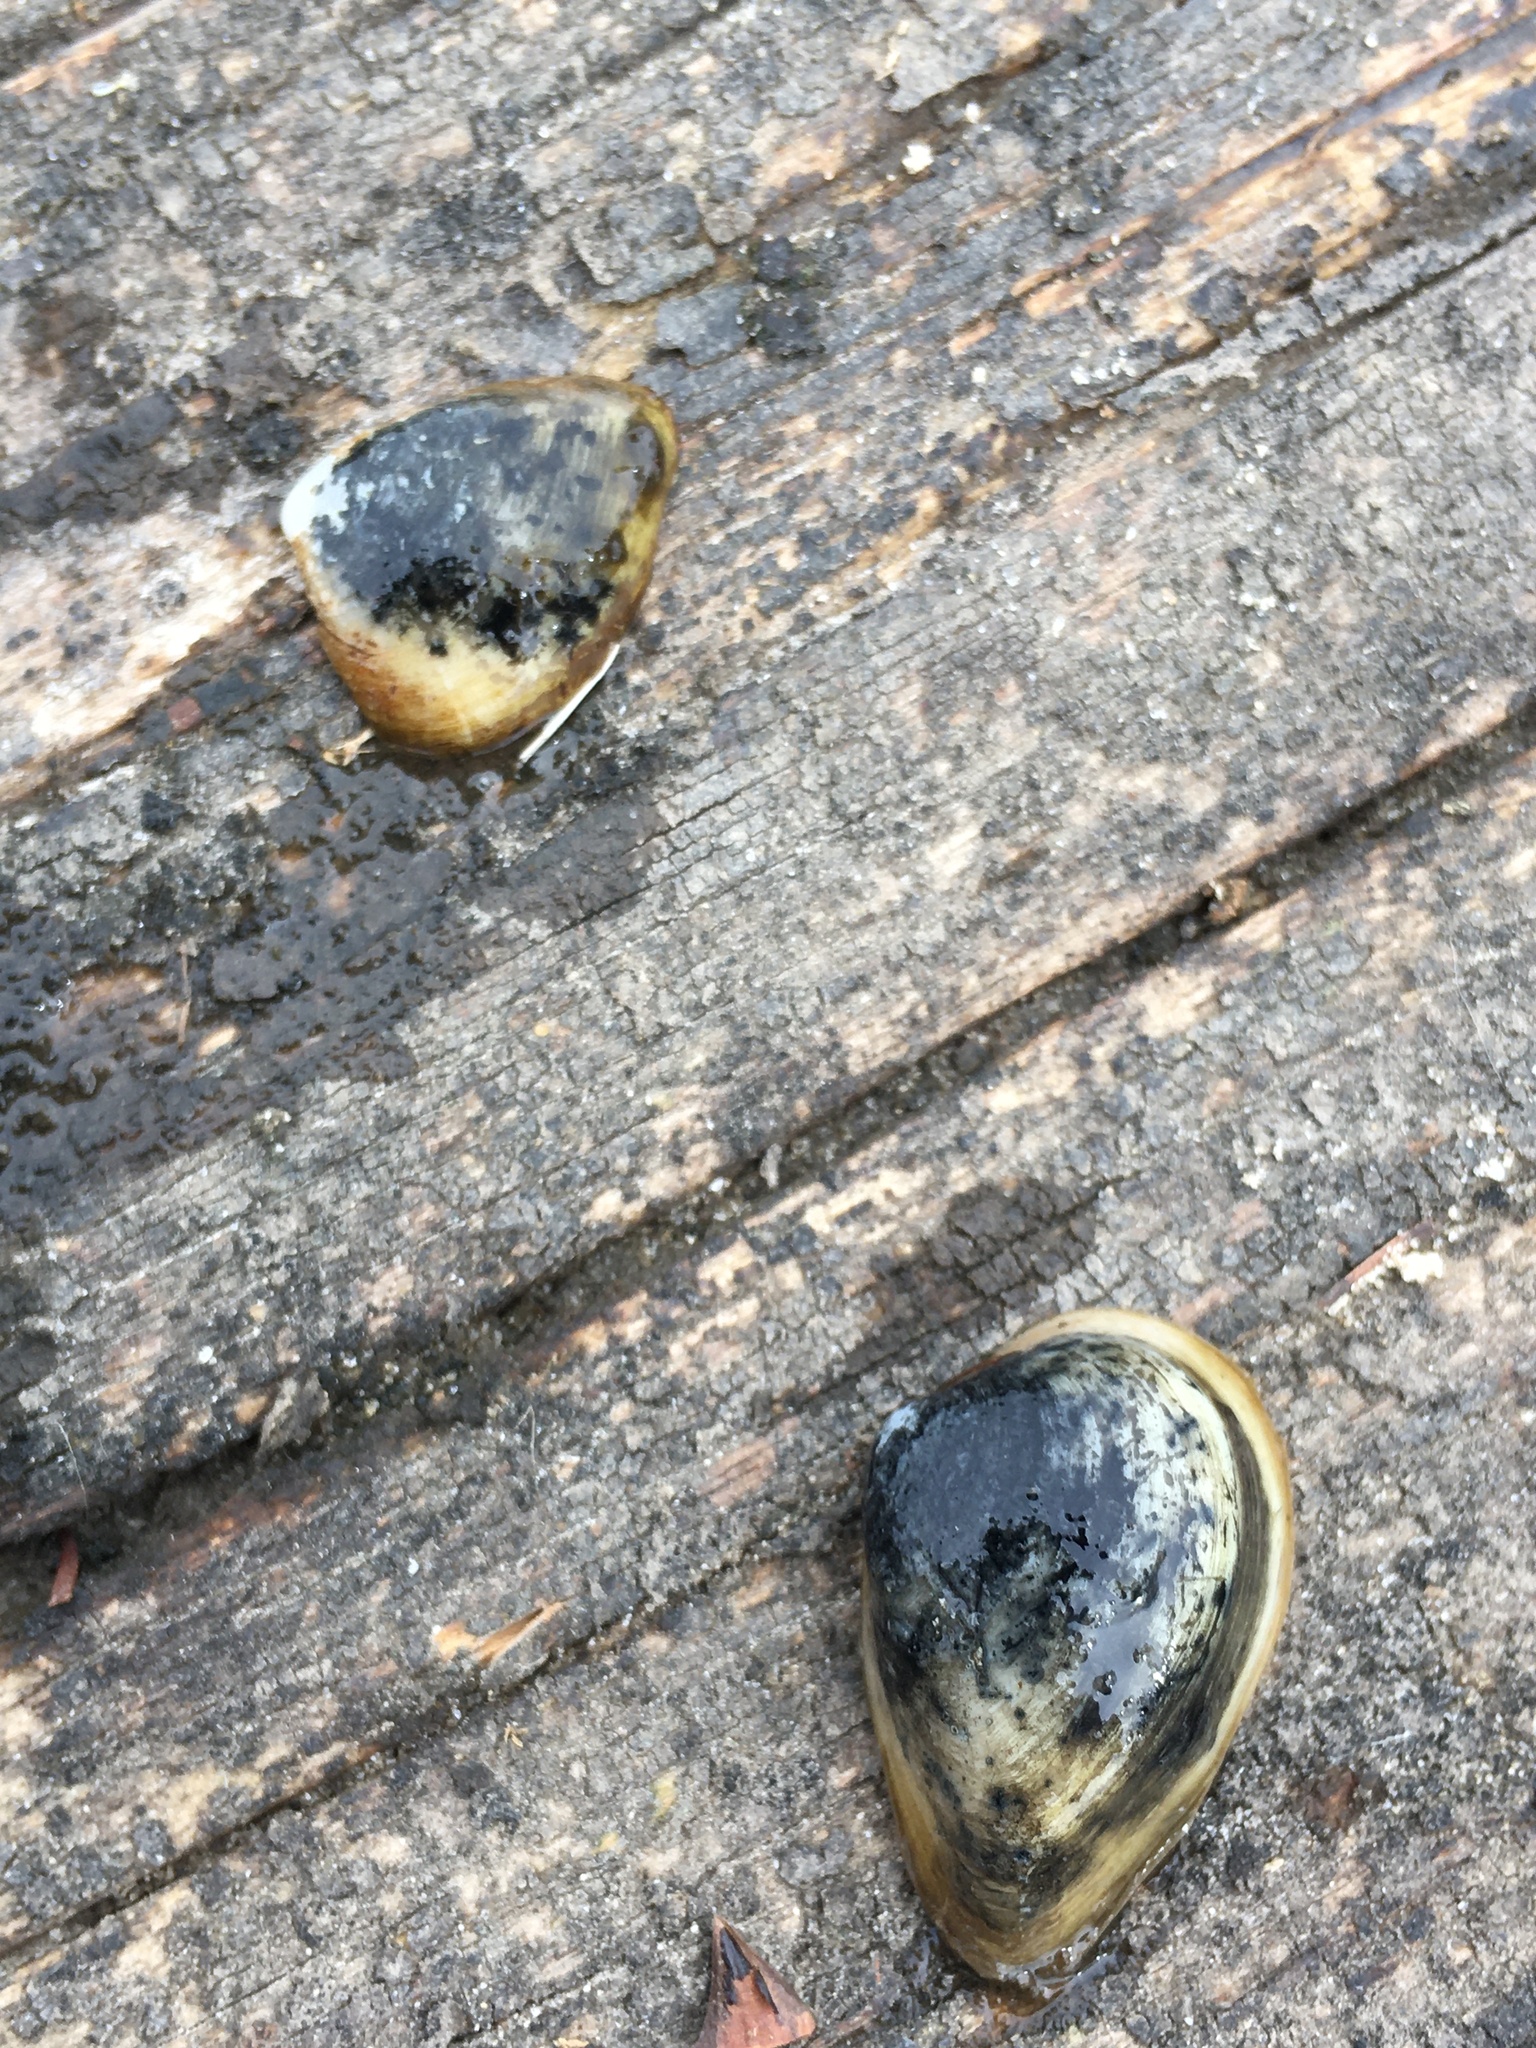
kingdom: Animalia
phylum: Mollusca
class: Bivalvia
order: Venerida
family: Mactridae
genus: Rangia
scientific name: Rangia cuneata
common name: Atlantic rangia
